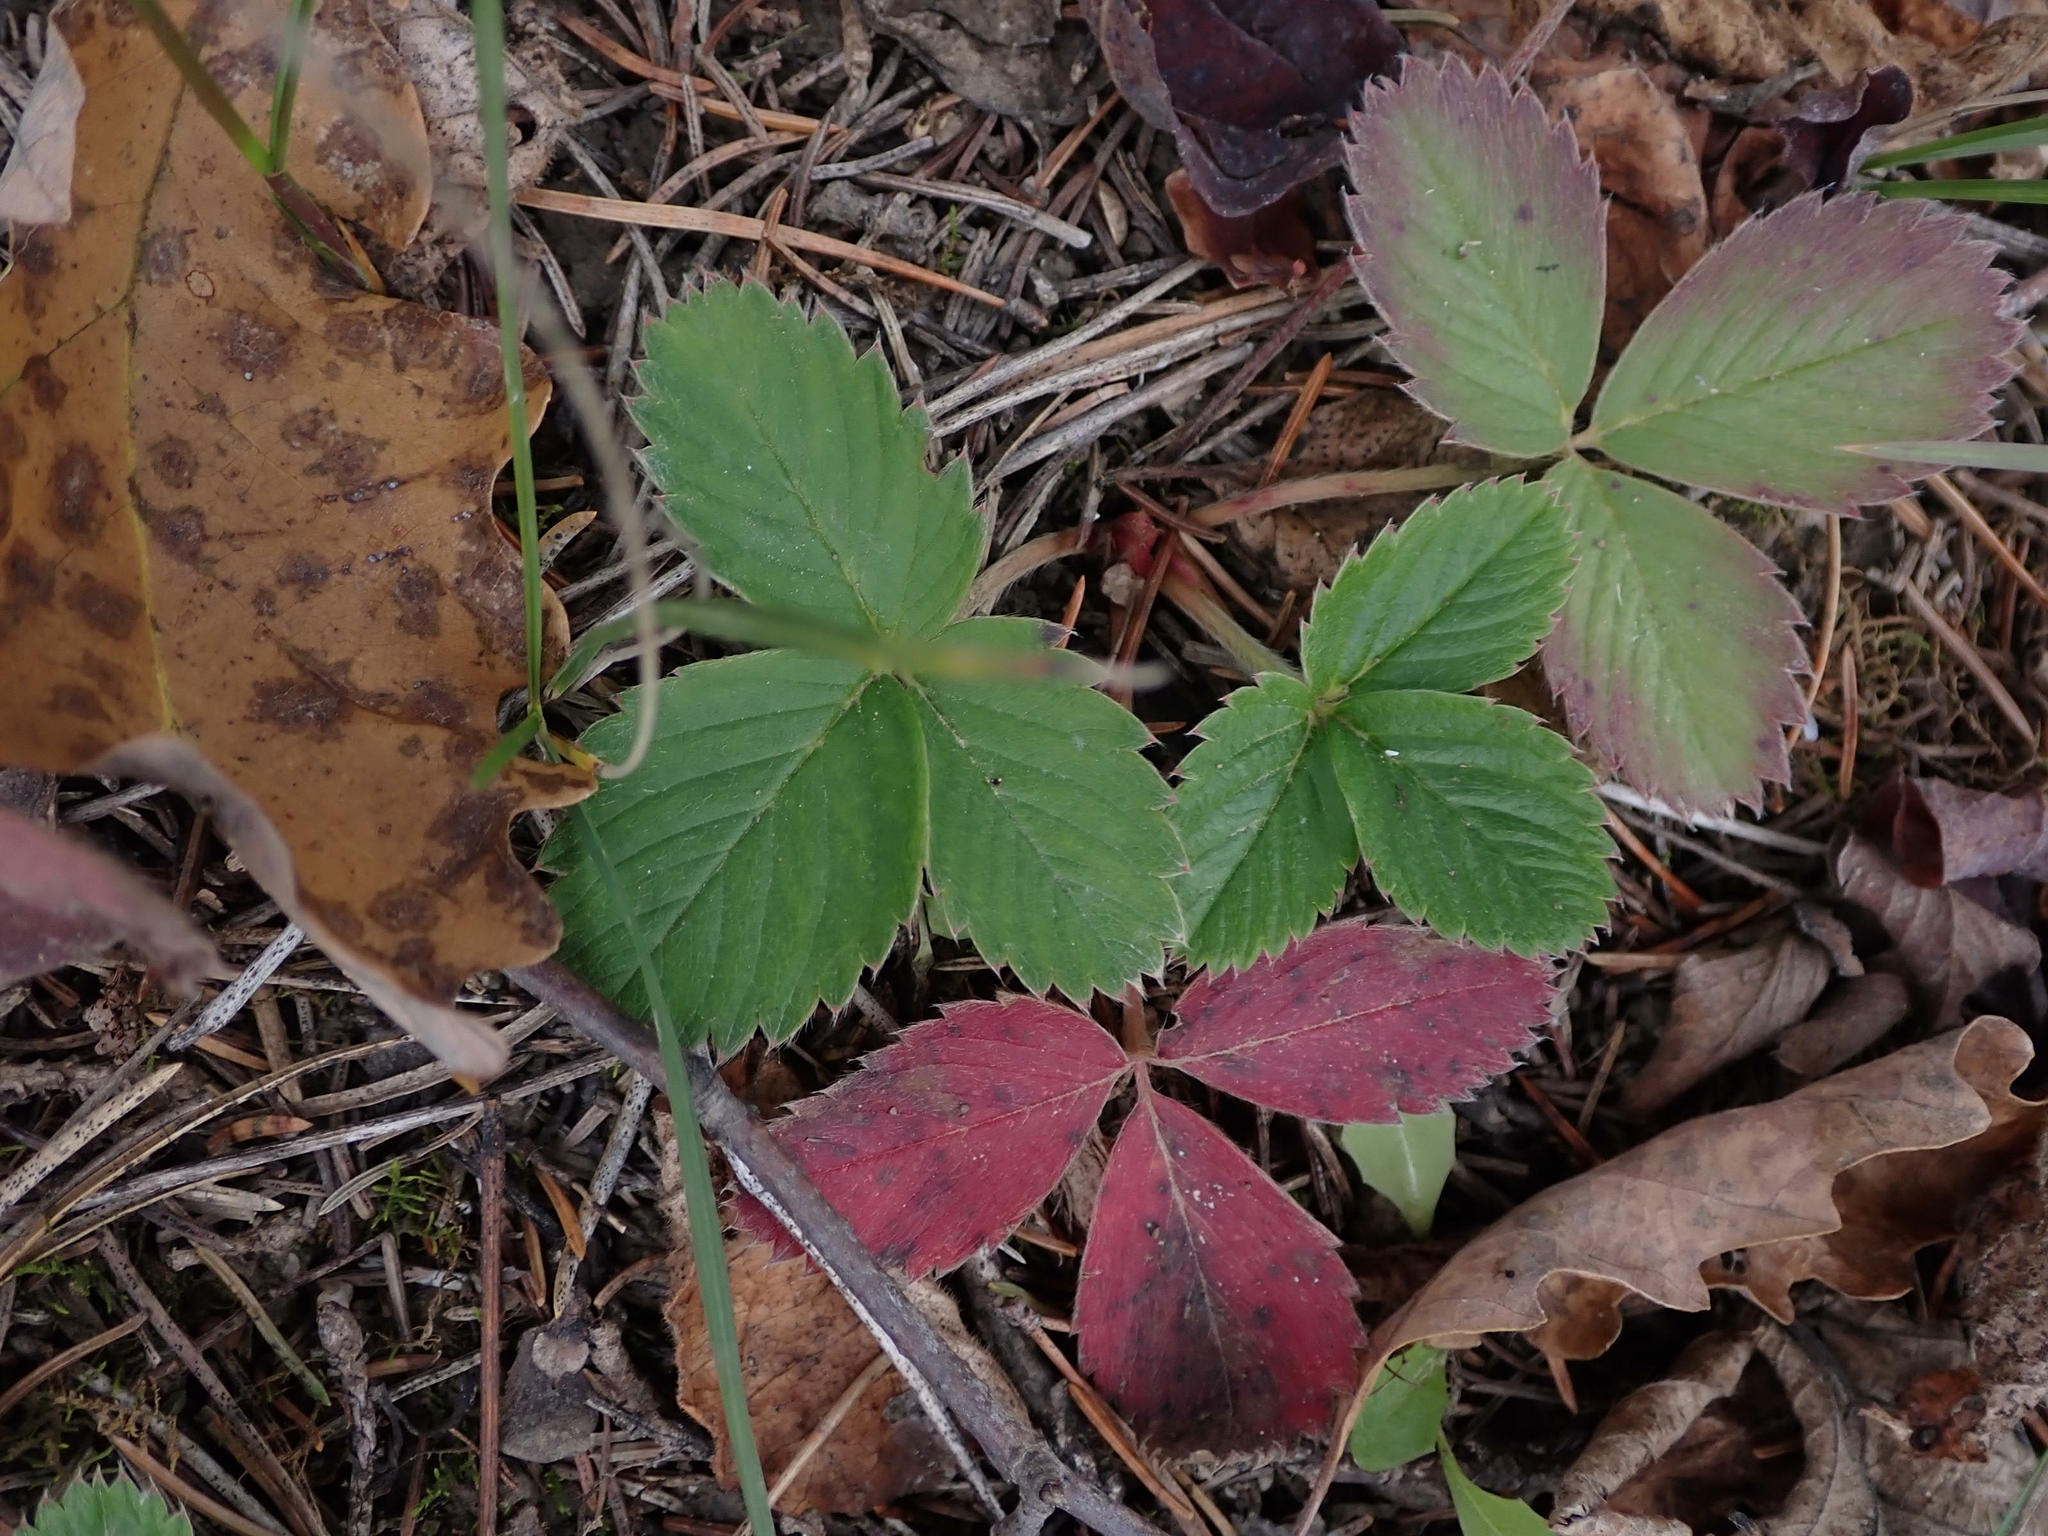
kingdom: Plantae
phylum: Tracheophyta
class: Magnoliopsida
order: Rosales
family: Rosaceae
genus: Fragaria
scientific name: Fragaria virginiana
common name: Thickleaved wild strawberry
